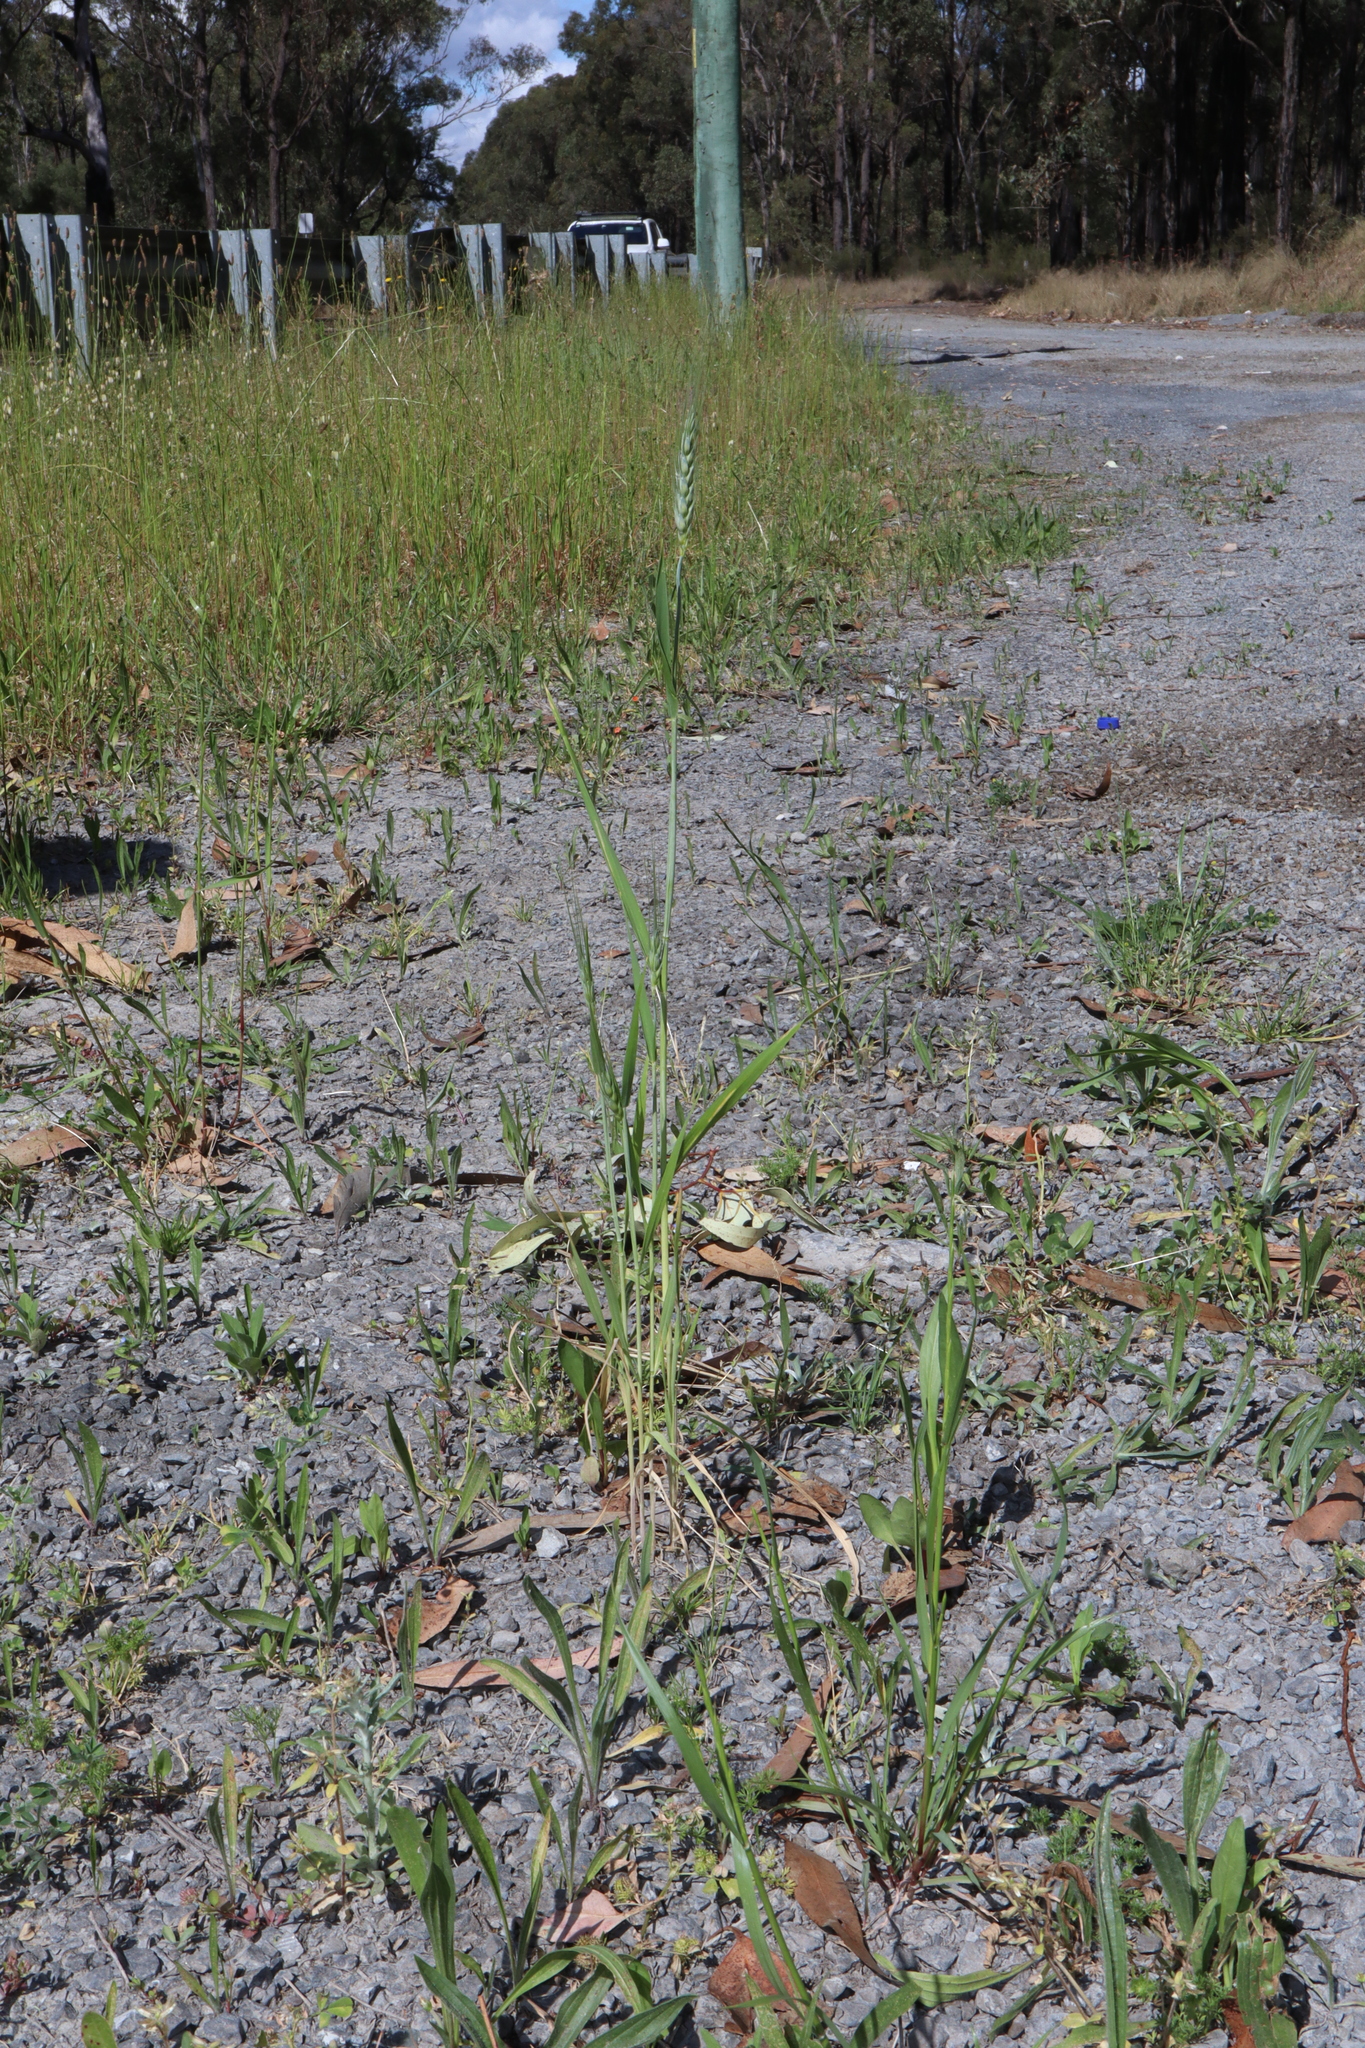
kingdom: Plantae
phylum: Tracheophyta
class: Liliopsida
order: Poales
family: Poaceae
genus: Triticum
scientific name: Triticum aestivum
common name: Common wheat
